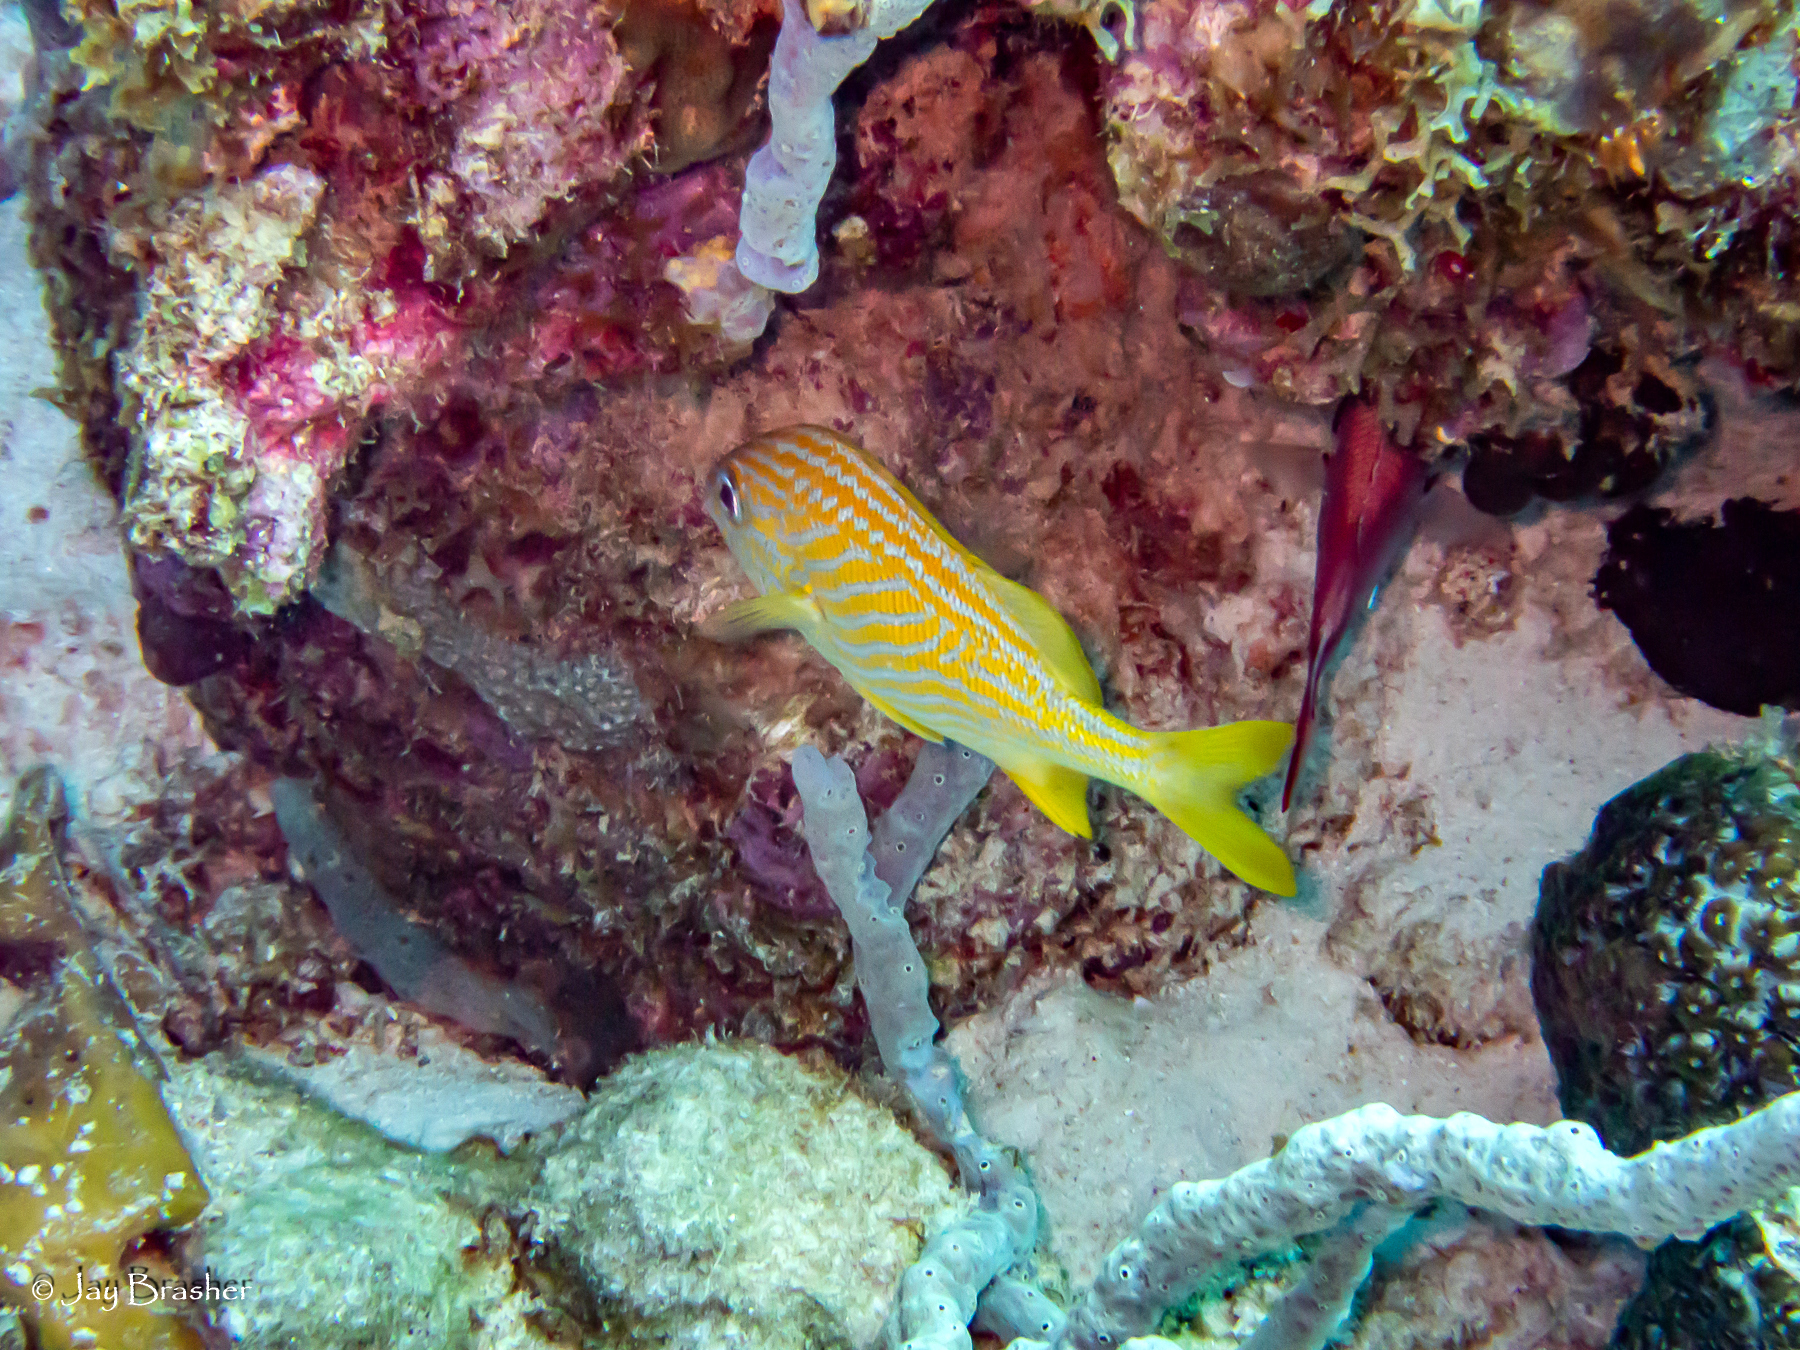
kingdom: Animalia
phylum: Chordata
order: Perciformes
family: Haemulidae
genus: Haemulon
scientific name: Haemulon flavolineatum
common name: French grunt
